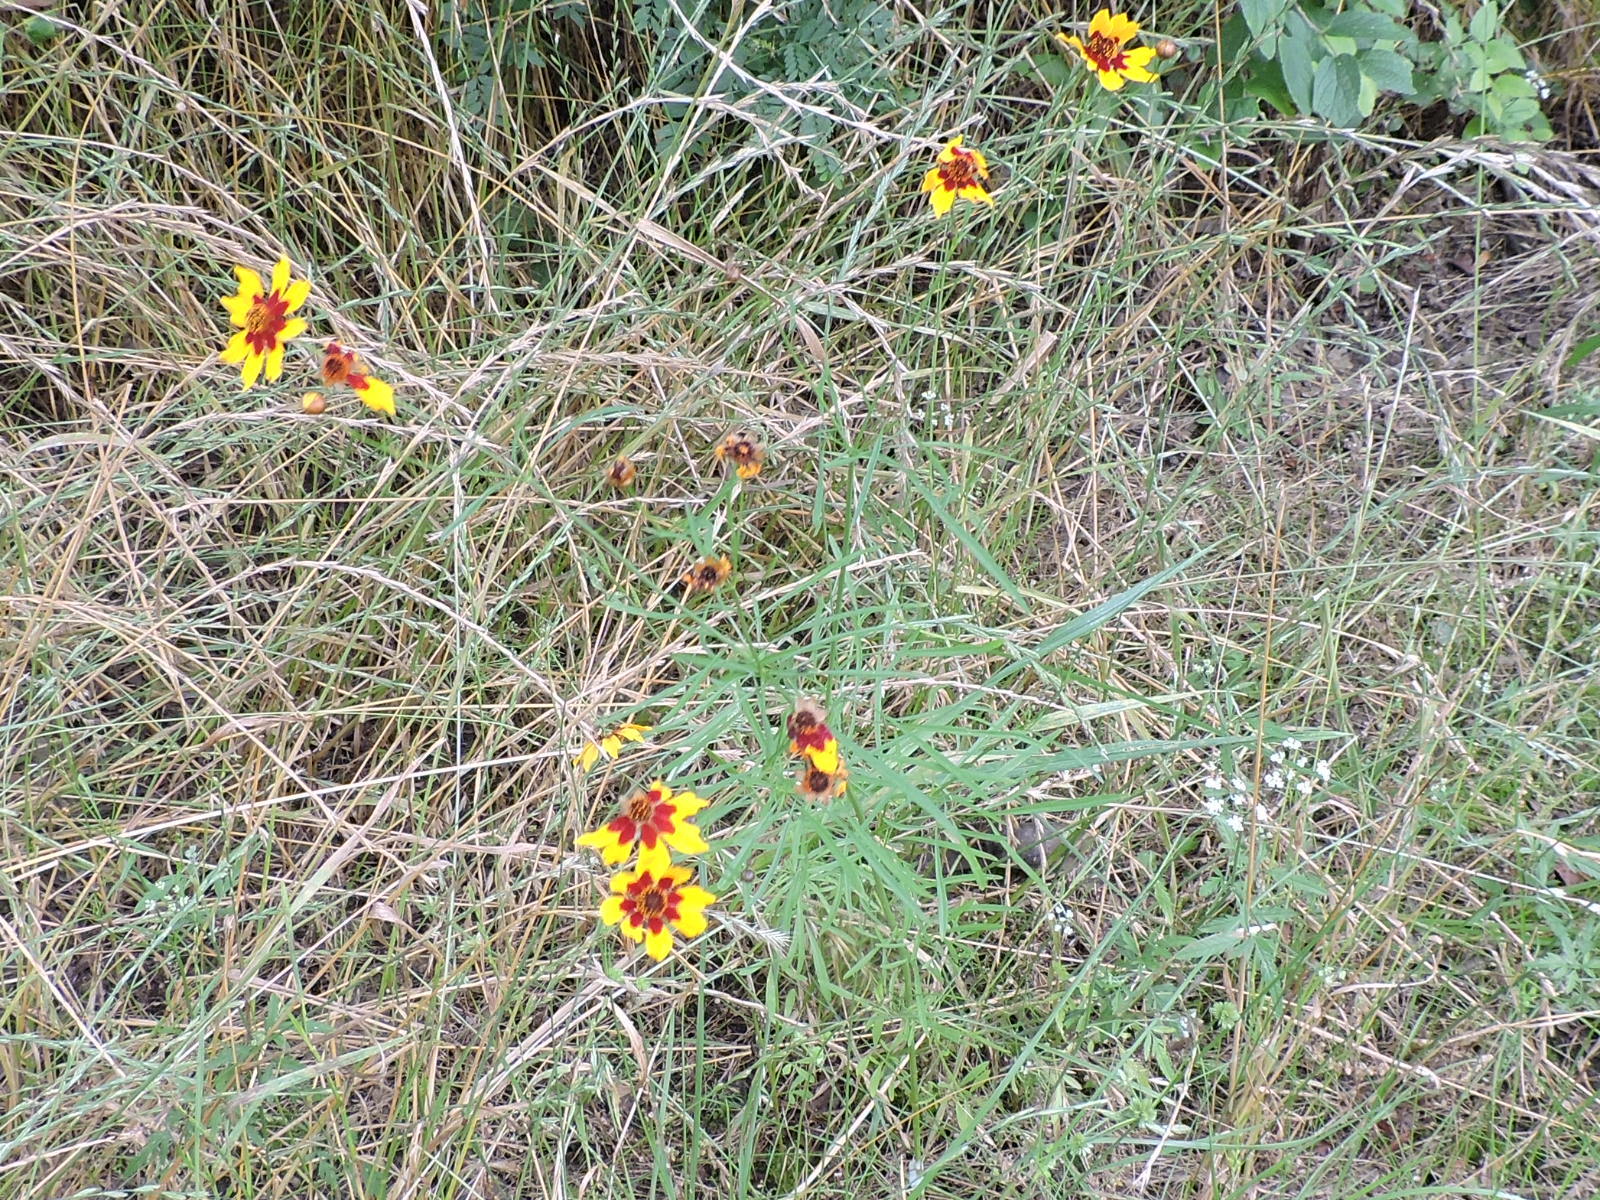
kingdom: Plantae
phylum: Tracheophyta
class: Magnoliopsida
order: Asterales
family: Asteraceae
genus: Coreopsis
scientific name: Coreopsis tinctoria
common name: Garden tickseed
